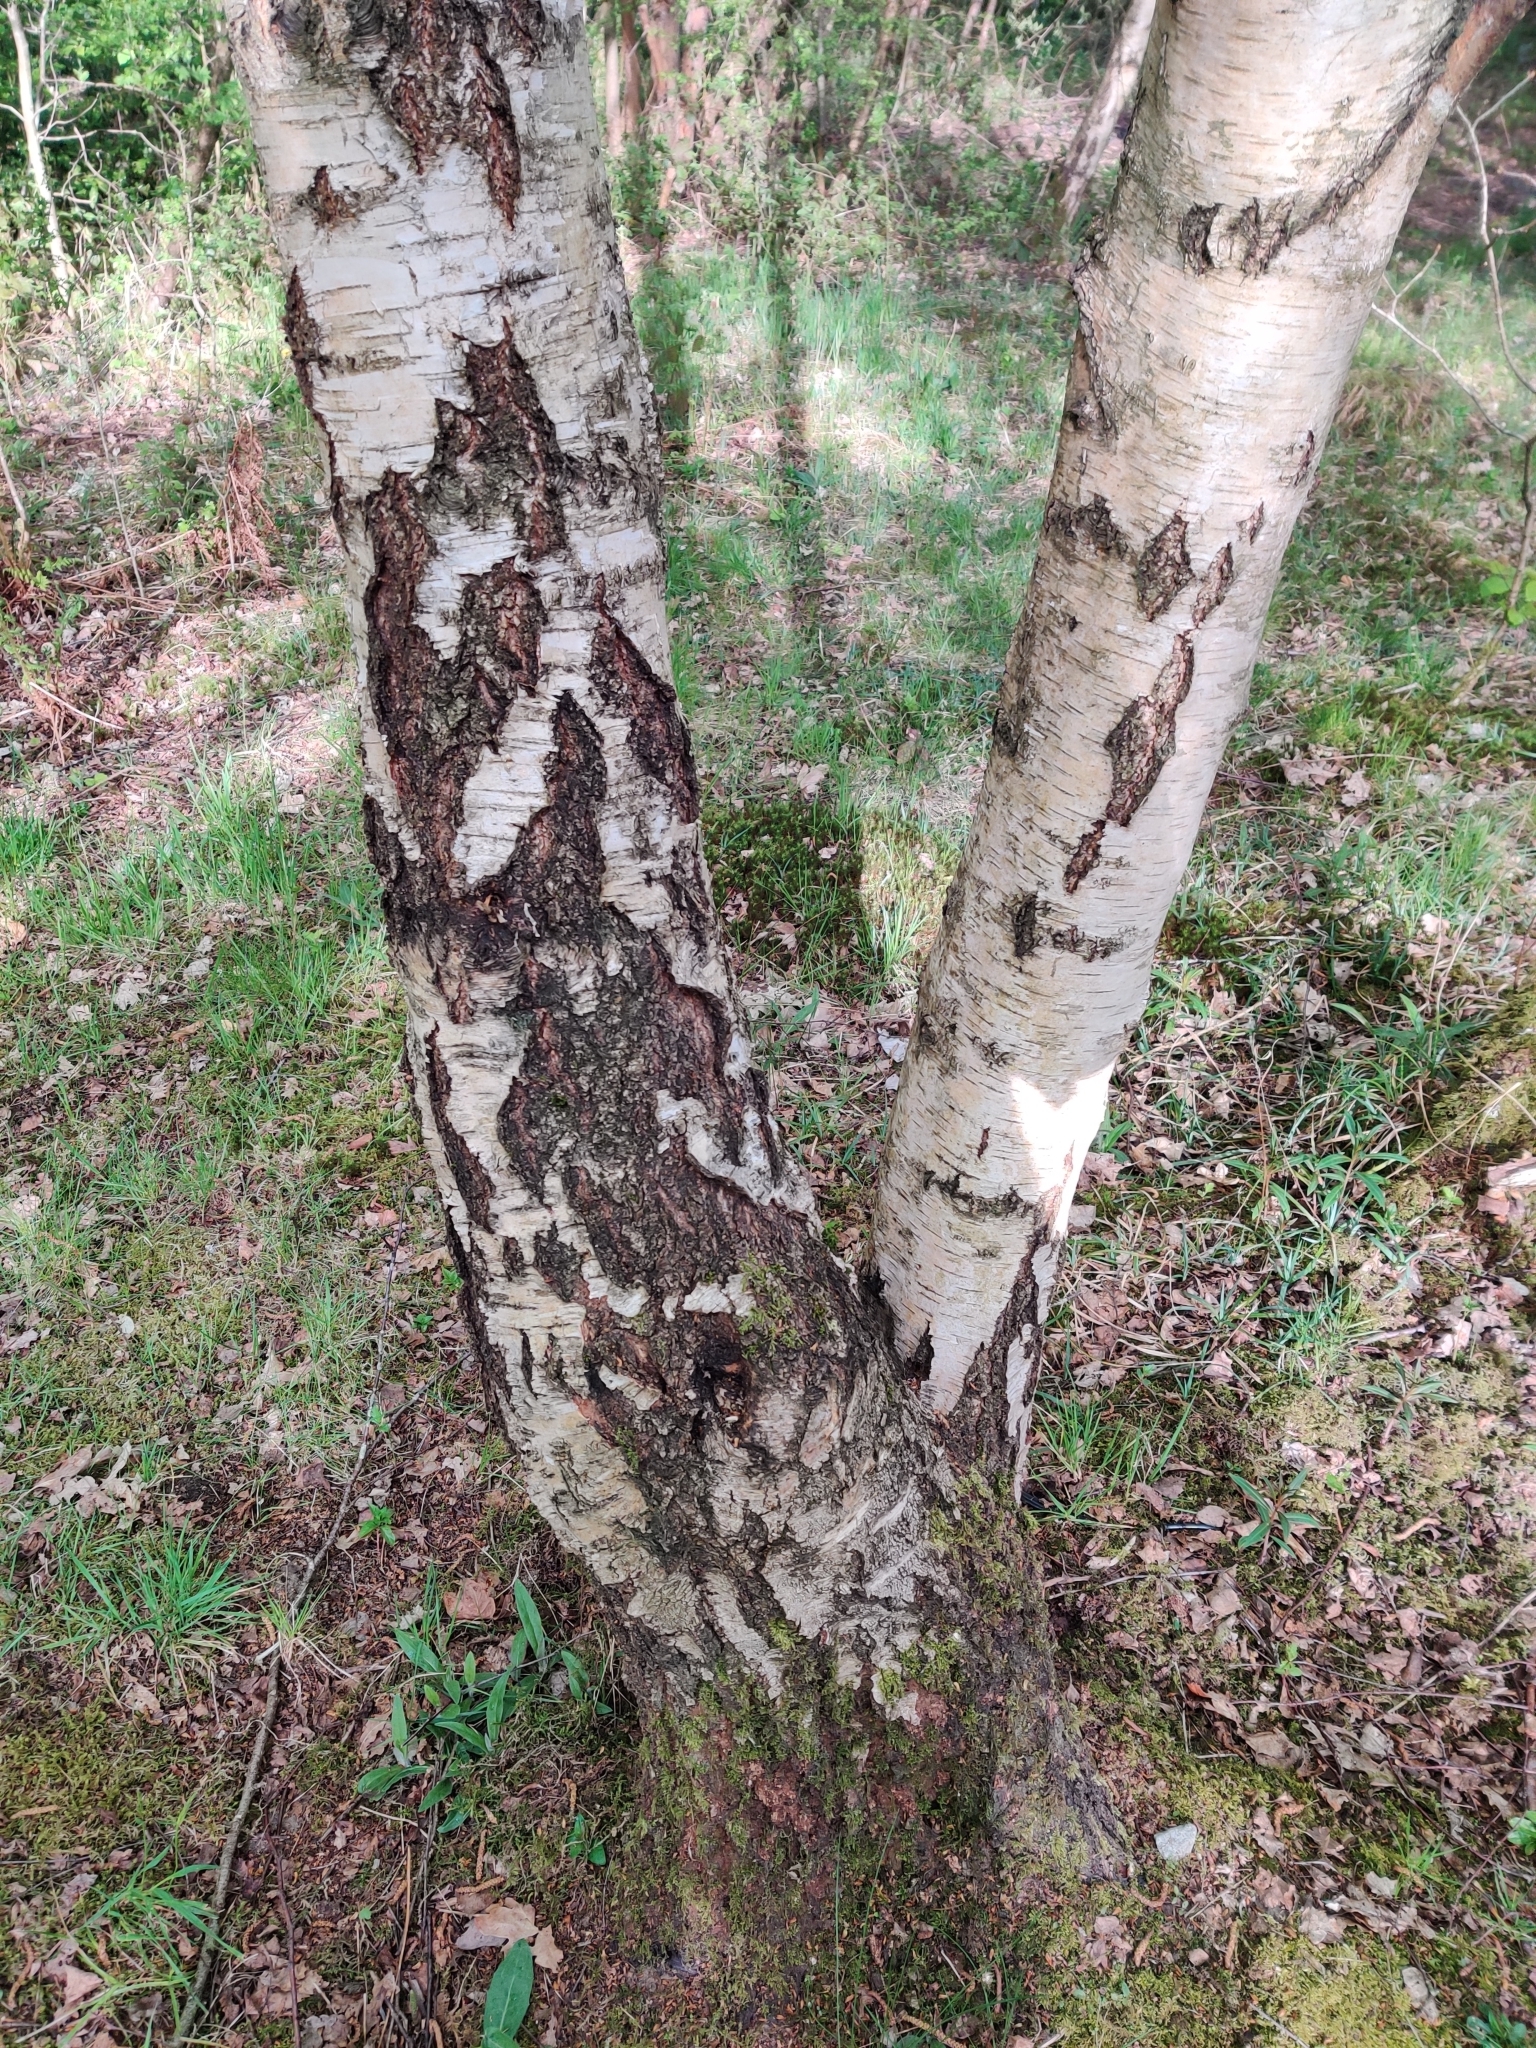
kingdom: Plantae
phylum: Tracheophyta
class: Magnoliopsida
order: Fagales
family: Betulaceae
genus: Betula
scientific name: Betula pendula
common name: Silver birch
